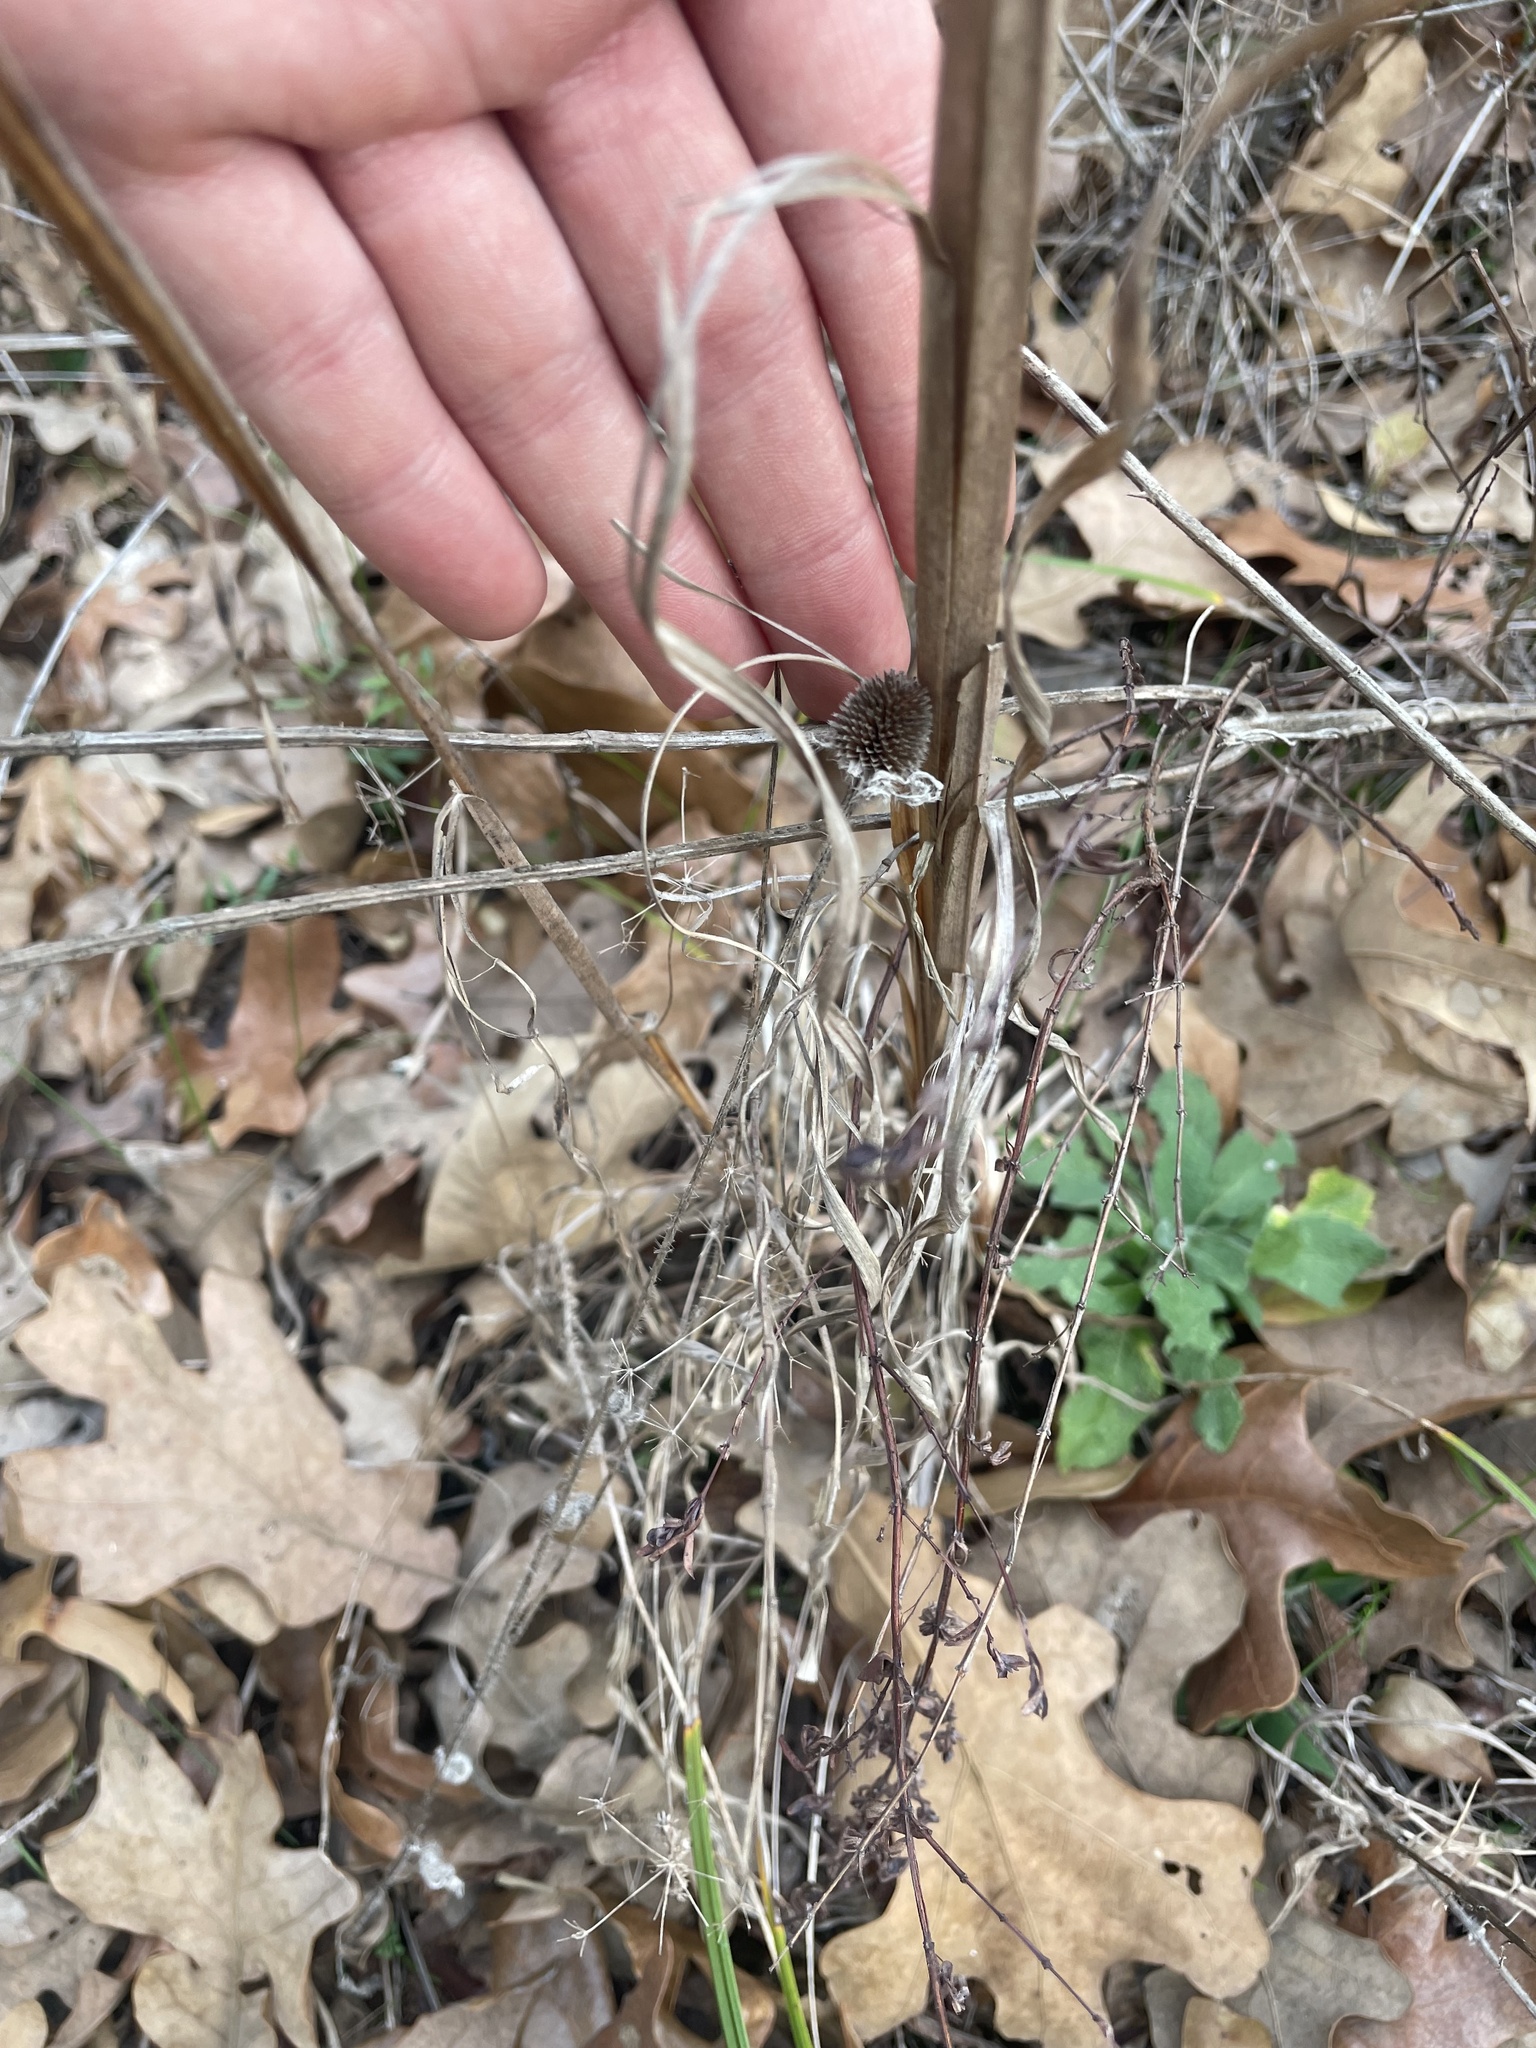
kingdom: Plantae
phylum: Tracheophyta
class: Liliopsida
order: Poales
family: Poaceae
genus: Andropogon
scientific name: Andropogon virginicus
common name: Broomsedge bluestem
